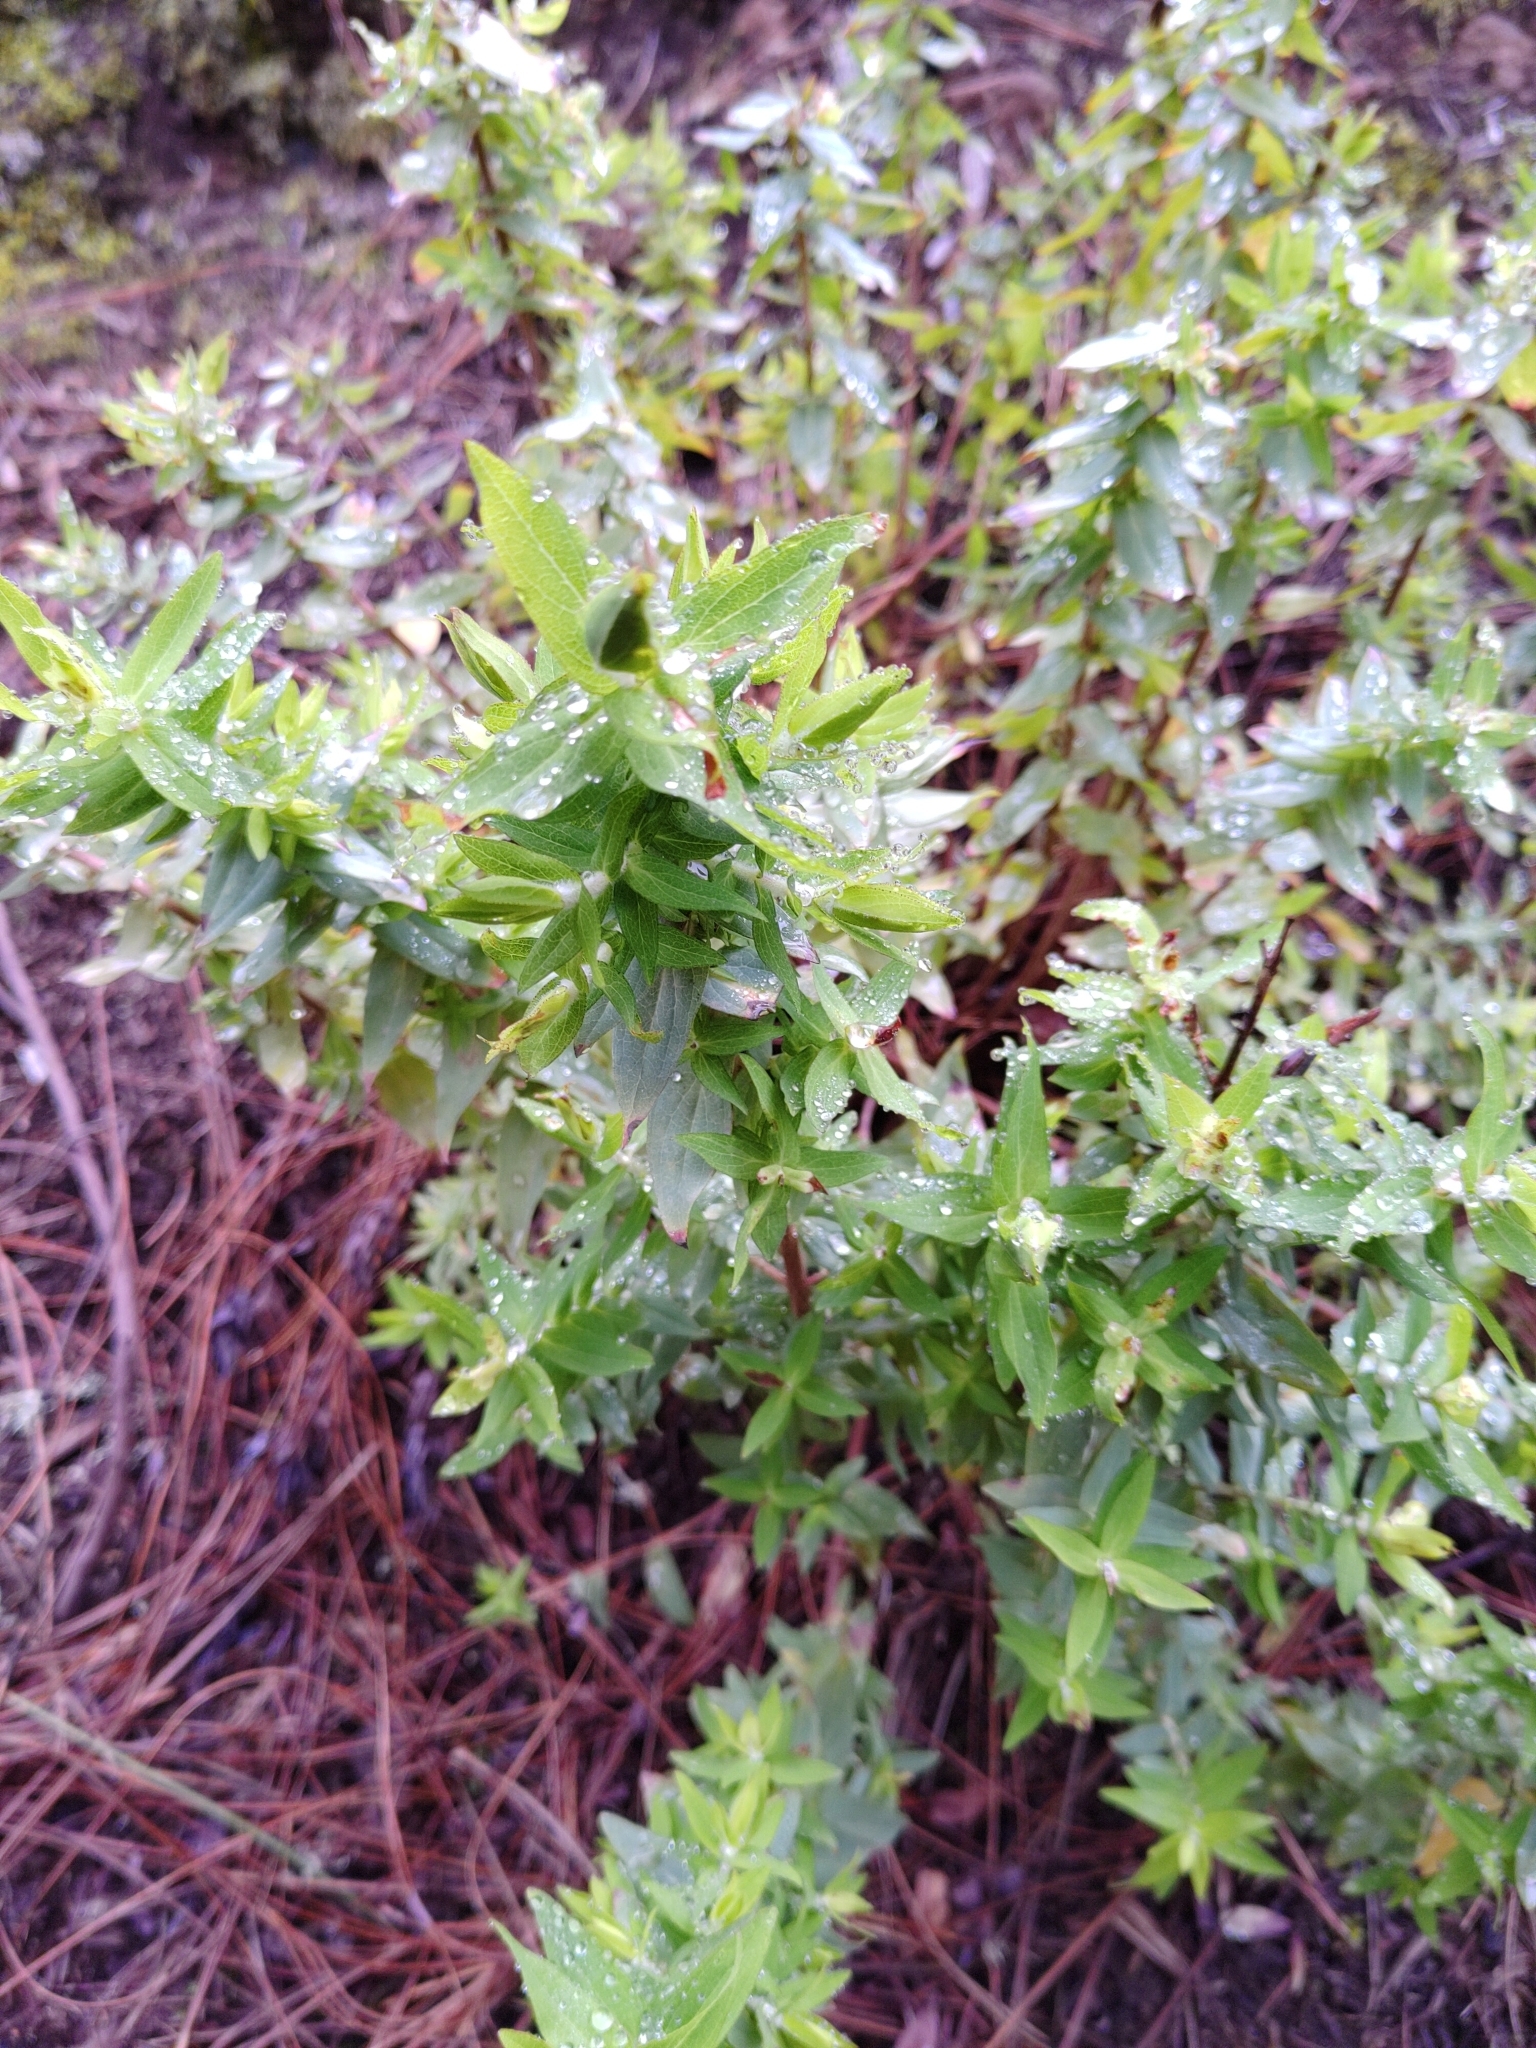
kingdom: Plantae
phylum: Tracheophyta
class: Magnoliopsida
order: Malpighiales
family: Hypericaceae
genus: Hypericum
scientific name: Hypericum reflexum
